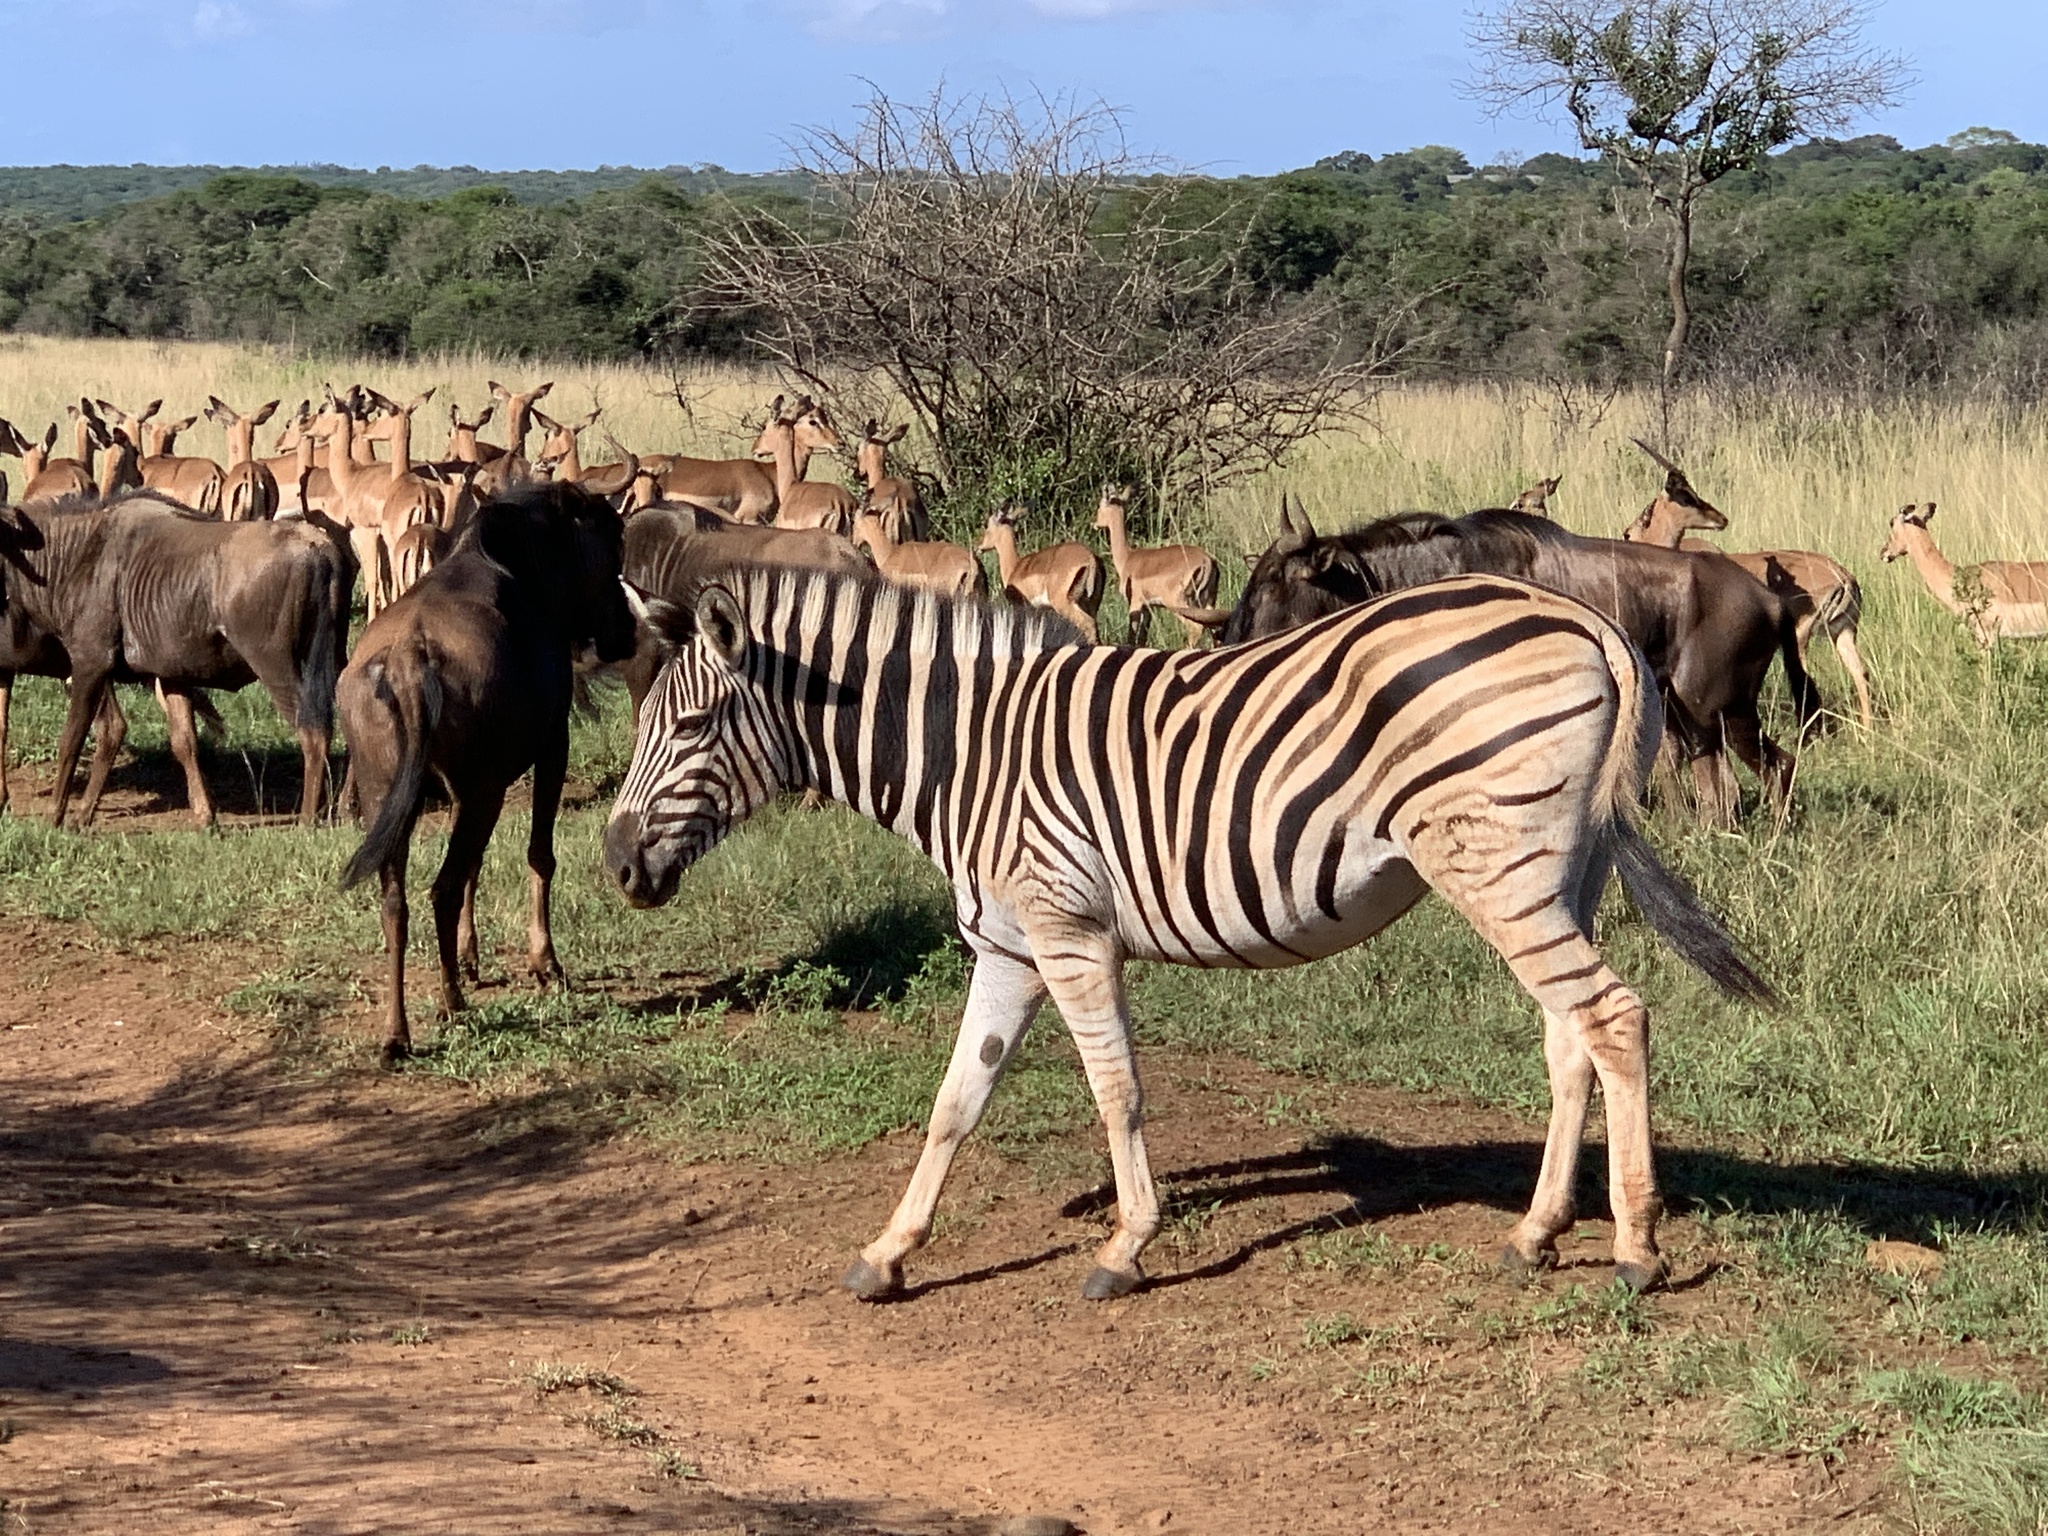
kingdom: Animalia
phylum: Chordata
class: Mammalia
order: Perissodactyla
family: Equidae
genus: Equus
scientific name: Equus quagga
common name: Plains zebra
